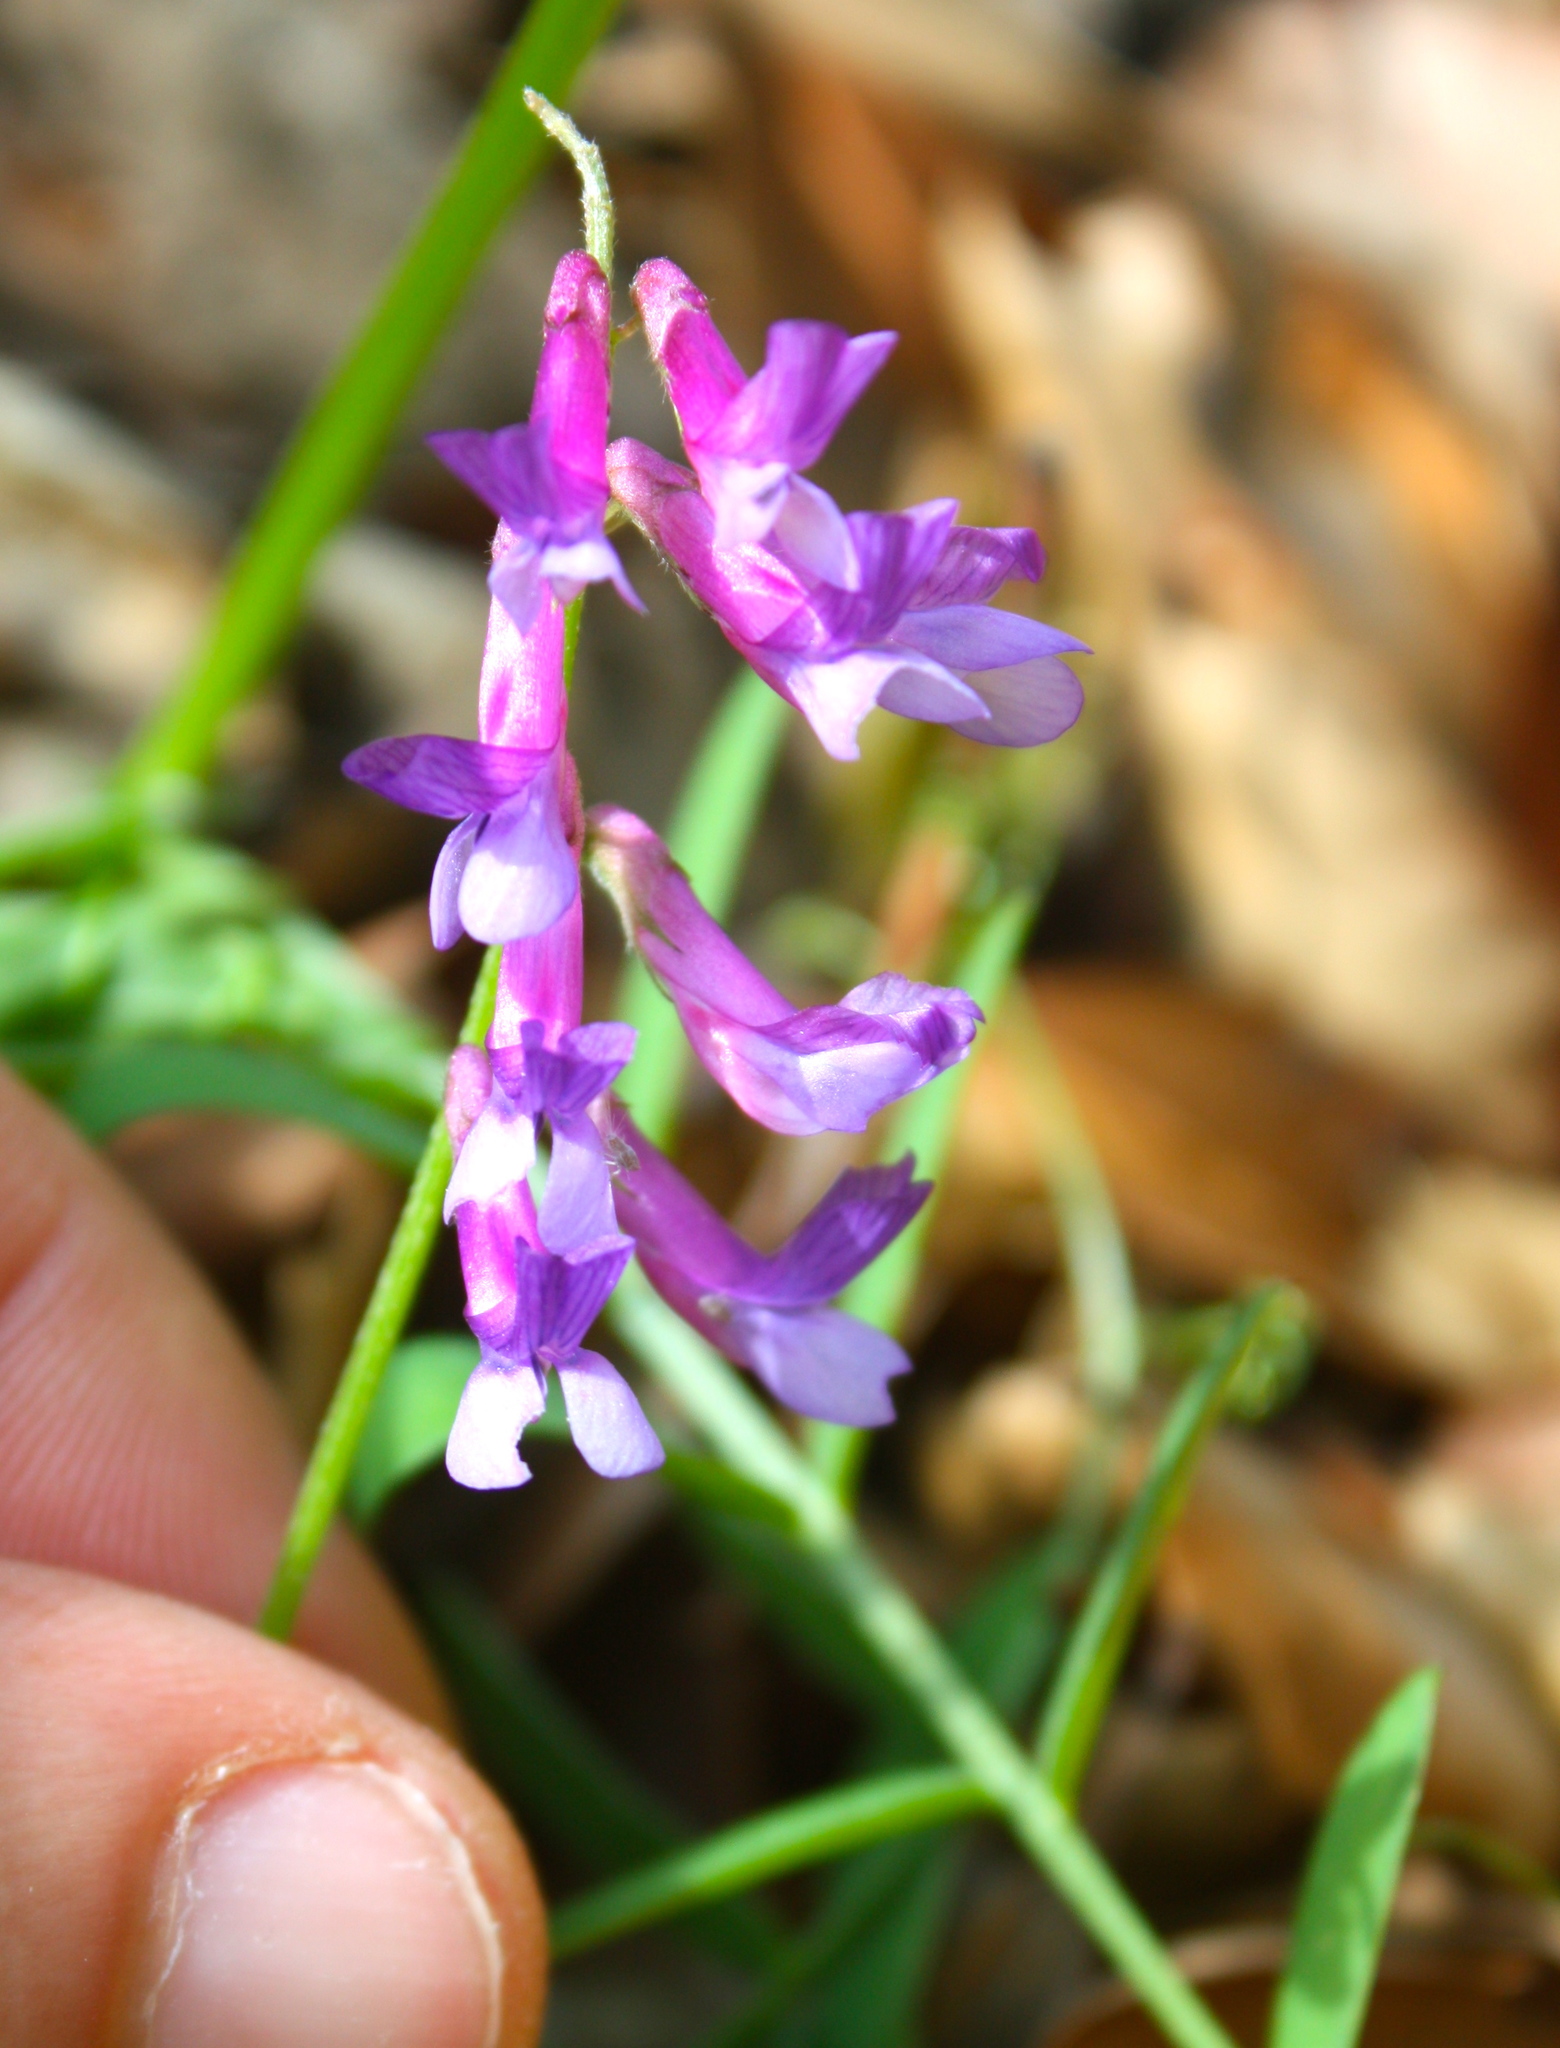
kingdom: Plantae
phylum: Tracheophyta
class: Magnoliopsida
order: Fabales
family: Fabaceae
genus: Vicia
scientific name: Vicia villosa
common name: Fodder vetch
